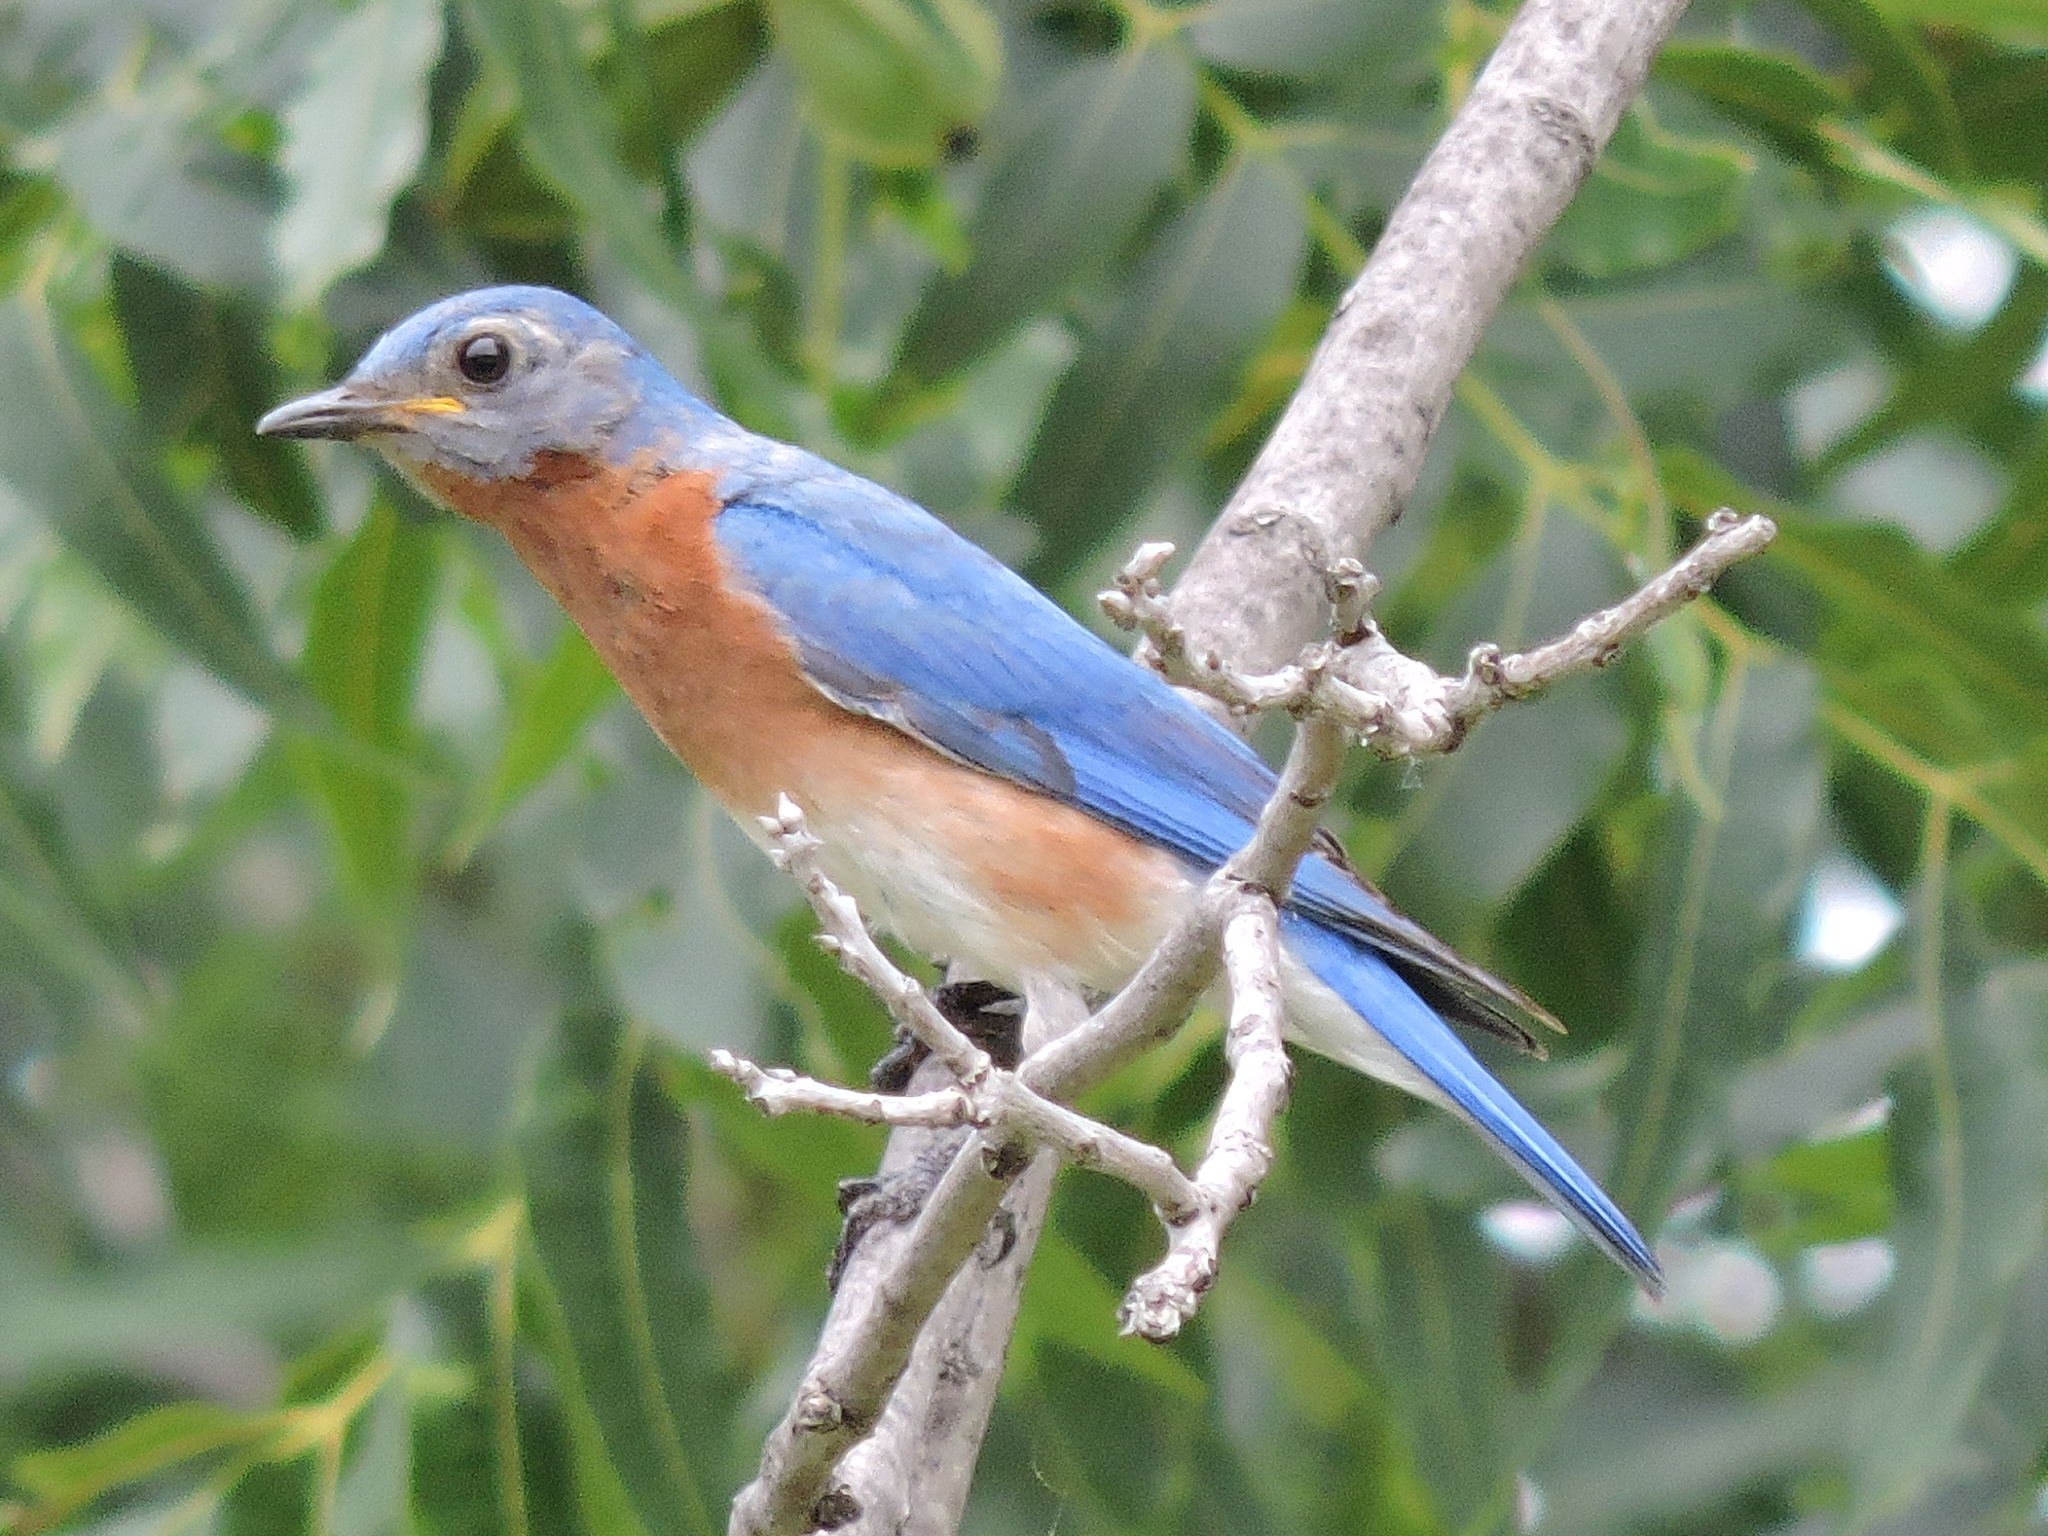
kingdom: Animalia
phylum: Chordata
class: Aves
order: Passeriformes
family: Turdidae
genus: Sialia
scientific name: Sialia sialis
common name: Eastern bluebird
